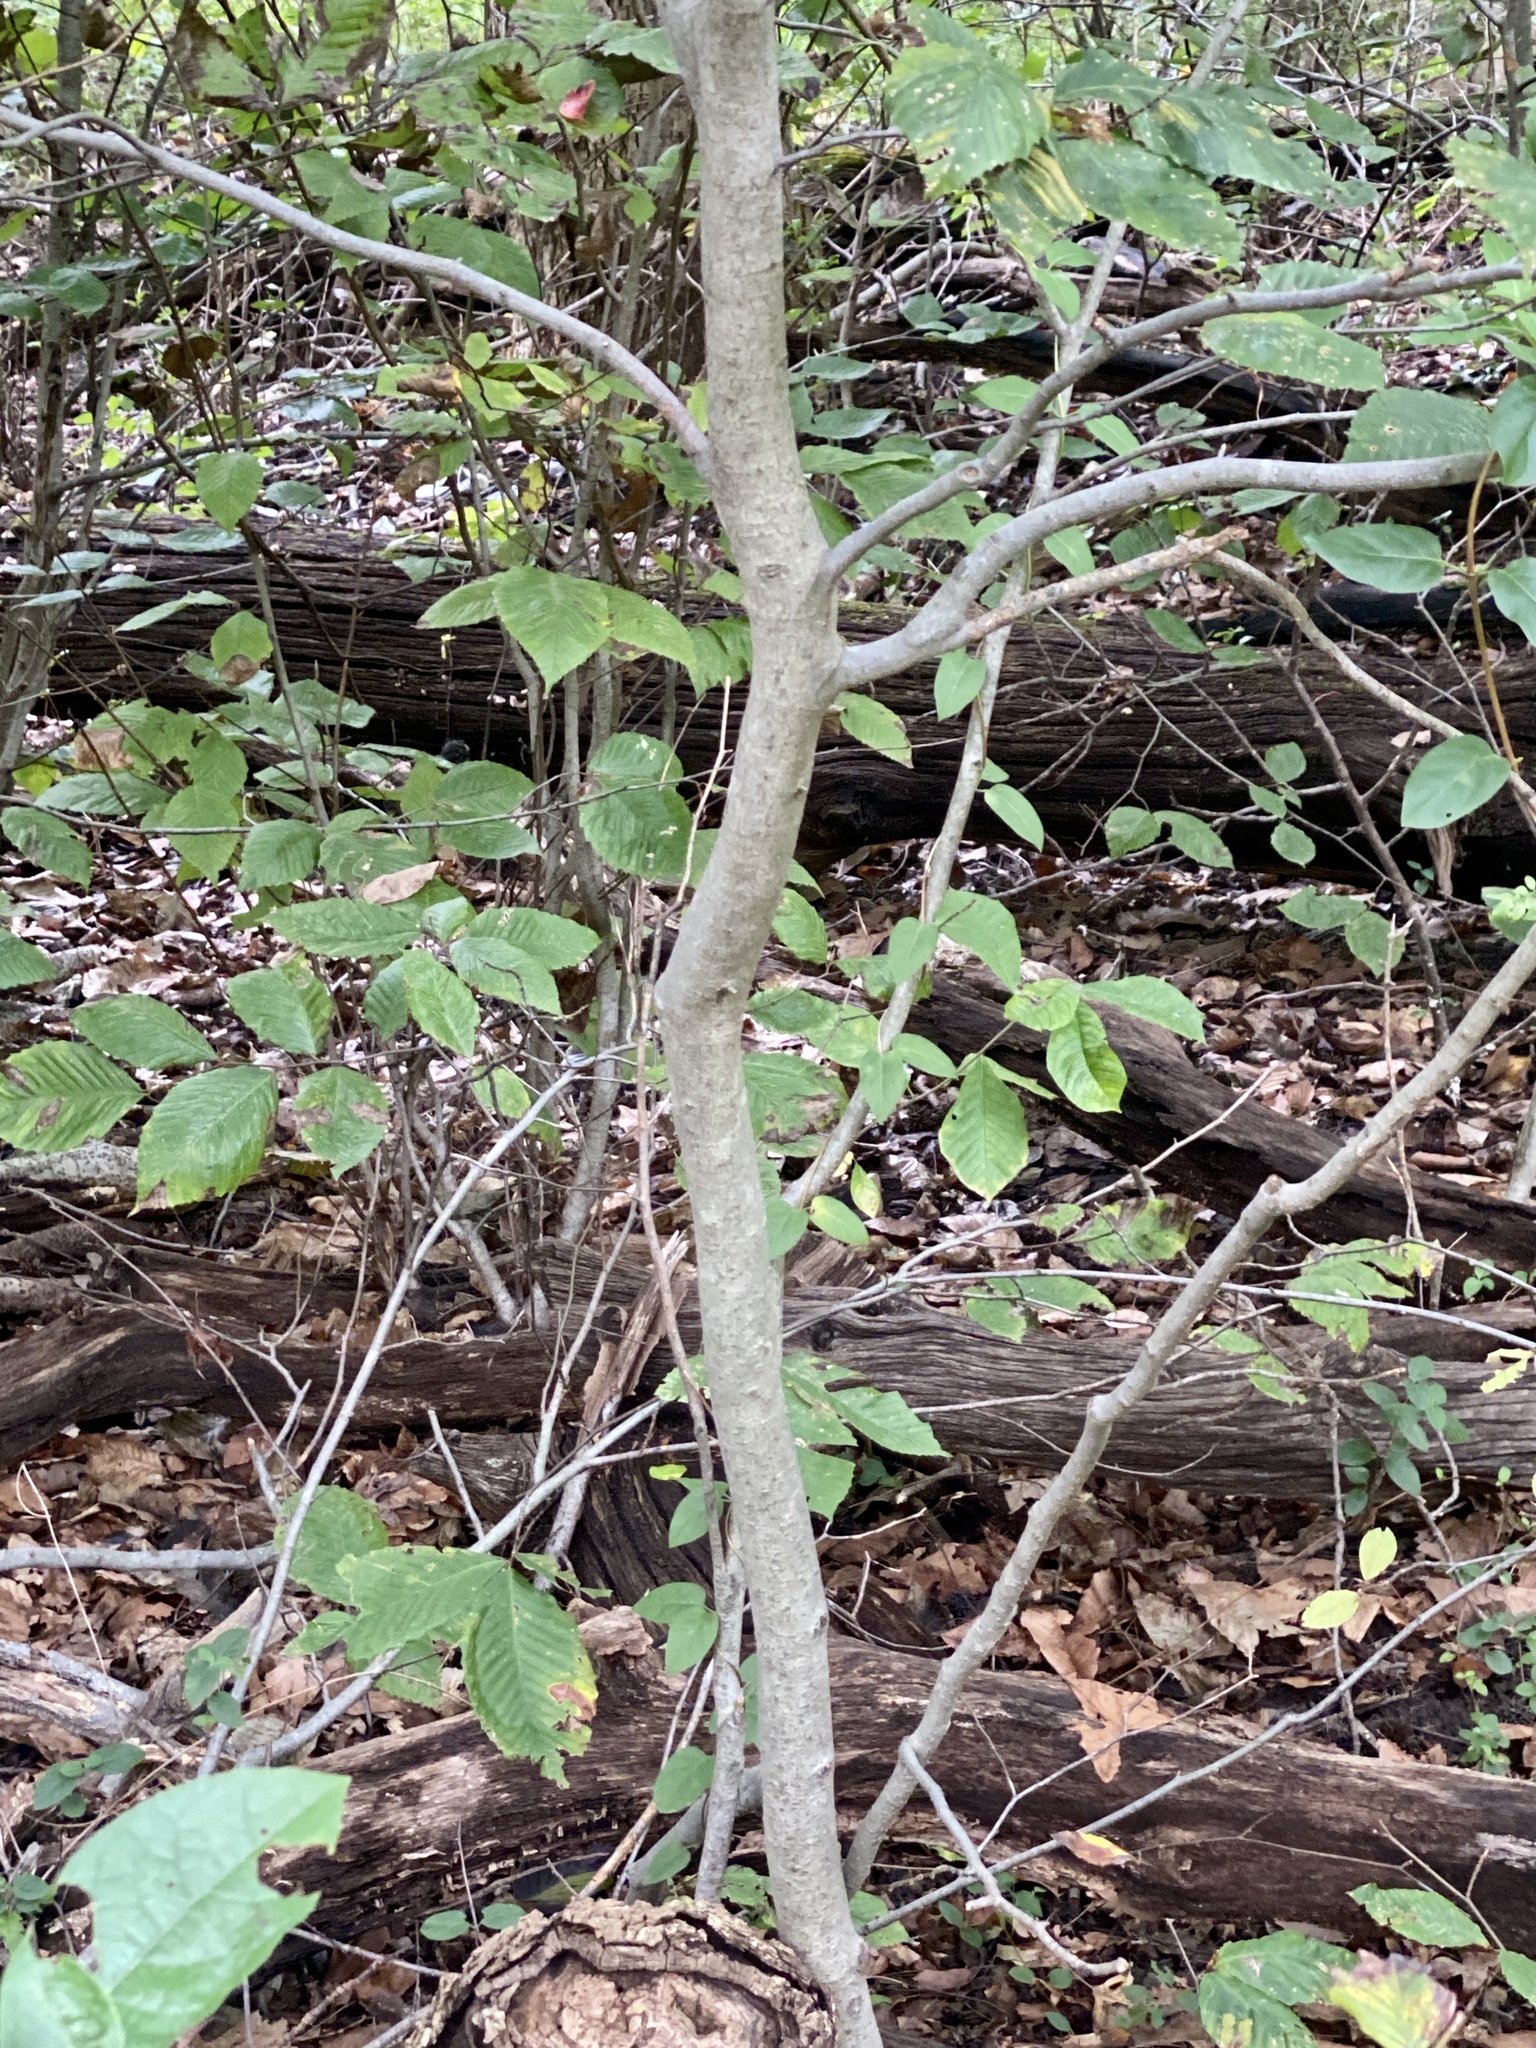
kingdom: Animalia
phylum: Nematoda
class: Chromadorea
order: Rhabditida
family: Anguinidae
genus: Litylenchus
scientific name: Litylenchus crenatae
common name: Beech leaf disease
